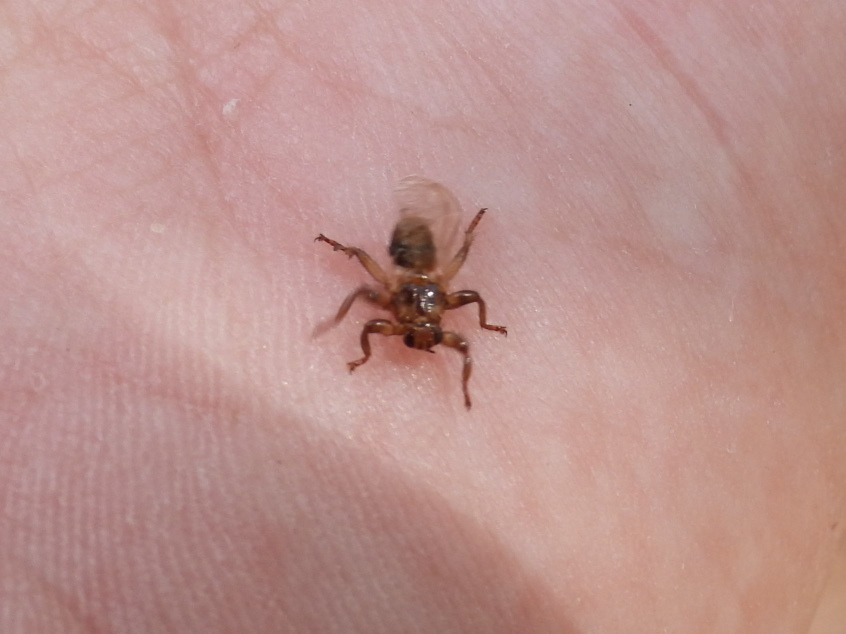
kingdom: Animalia
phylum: Arthropoda
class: Insecta
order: Diptera
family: Hippoboscidae
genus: Lipoptena
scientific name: Lipoptena cervi
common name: Deer ked
